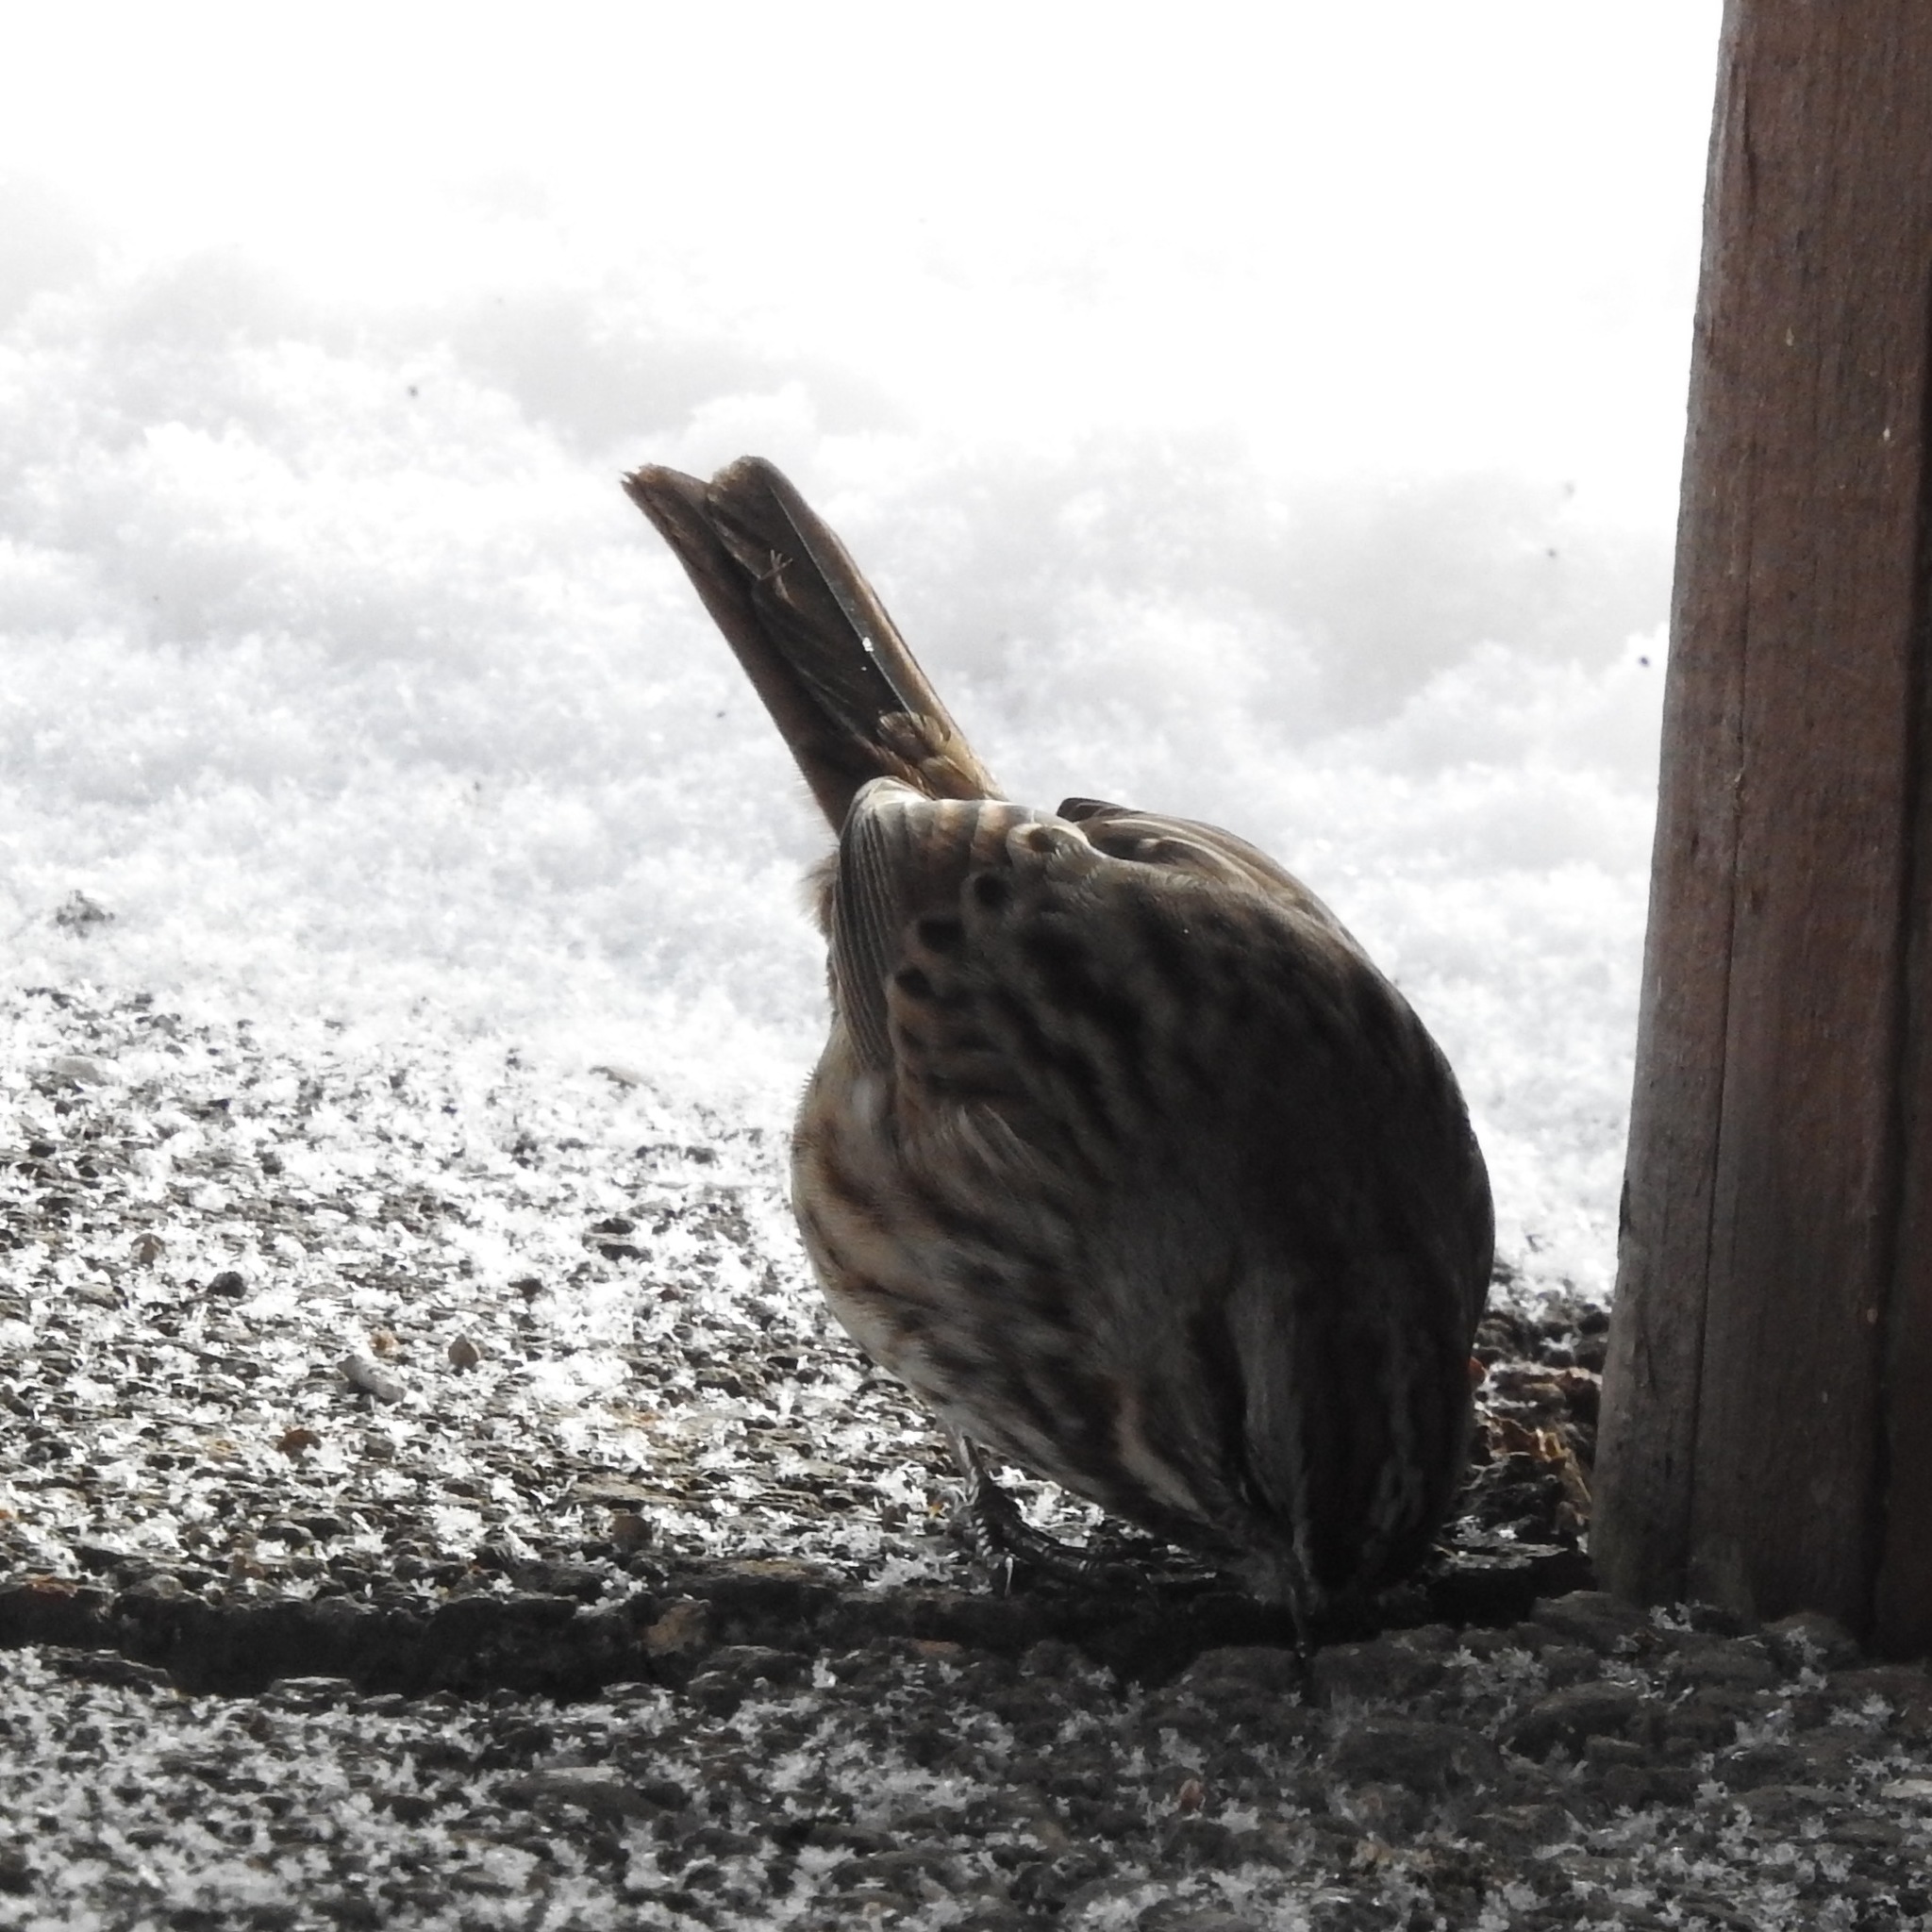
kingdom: Animalia
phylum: Chordata
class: Aves
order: Passeriformes
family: Passerellidae
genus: Melospiza
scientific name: Melospiza melodia
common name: Song sparrow
